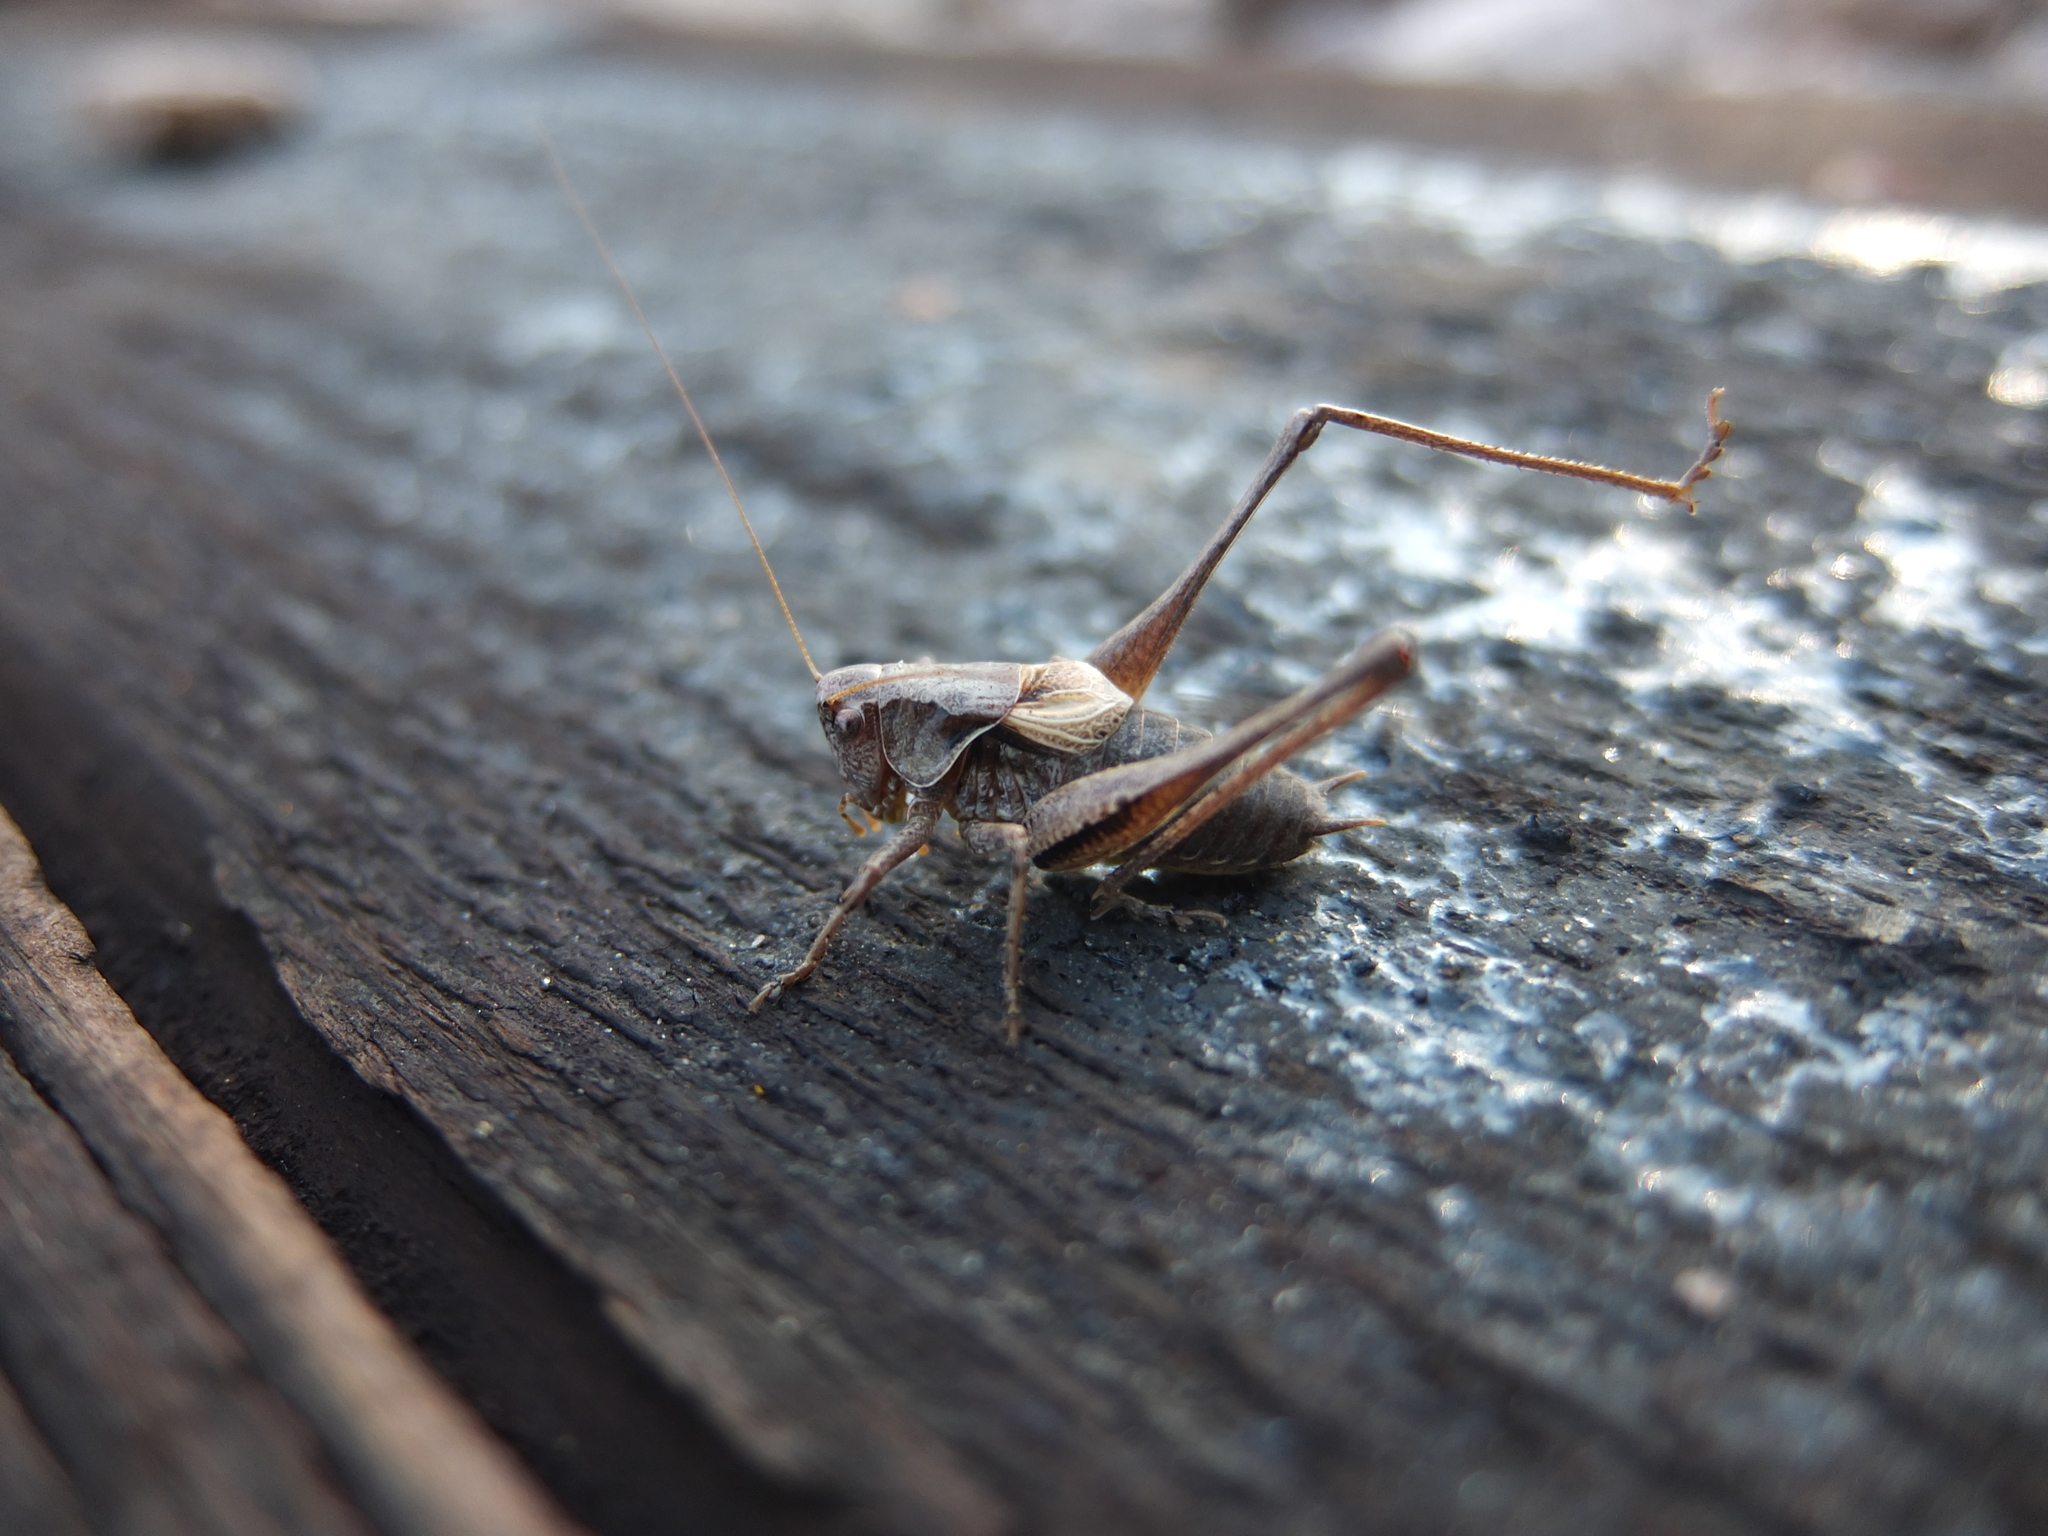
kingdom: Animalia
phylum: Arthropoda
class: Insecta
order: Orthoptera
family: Tettigoniidae
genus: Pholidoptera
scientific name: Pholidoptera griseoaptera
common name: Dark bush-cricket
